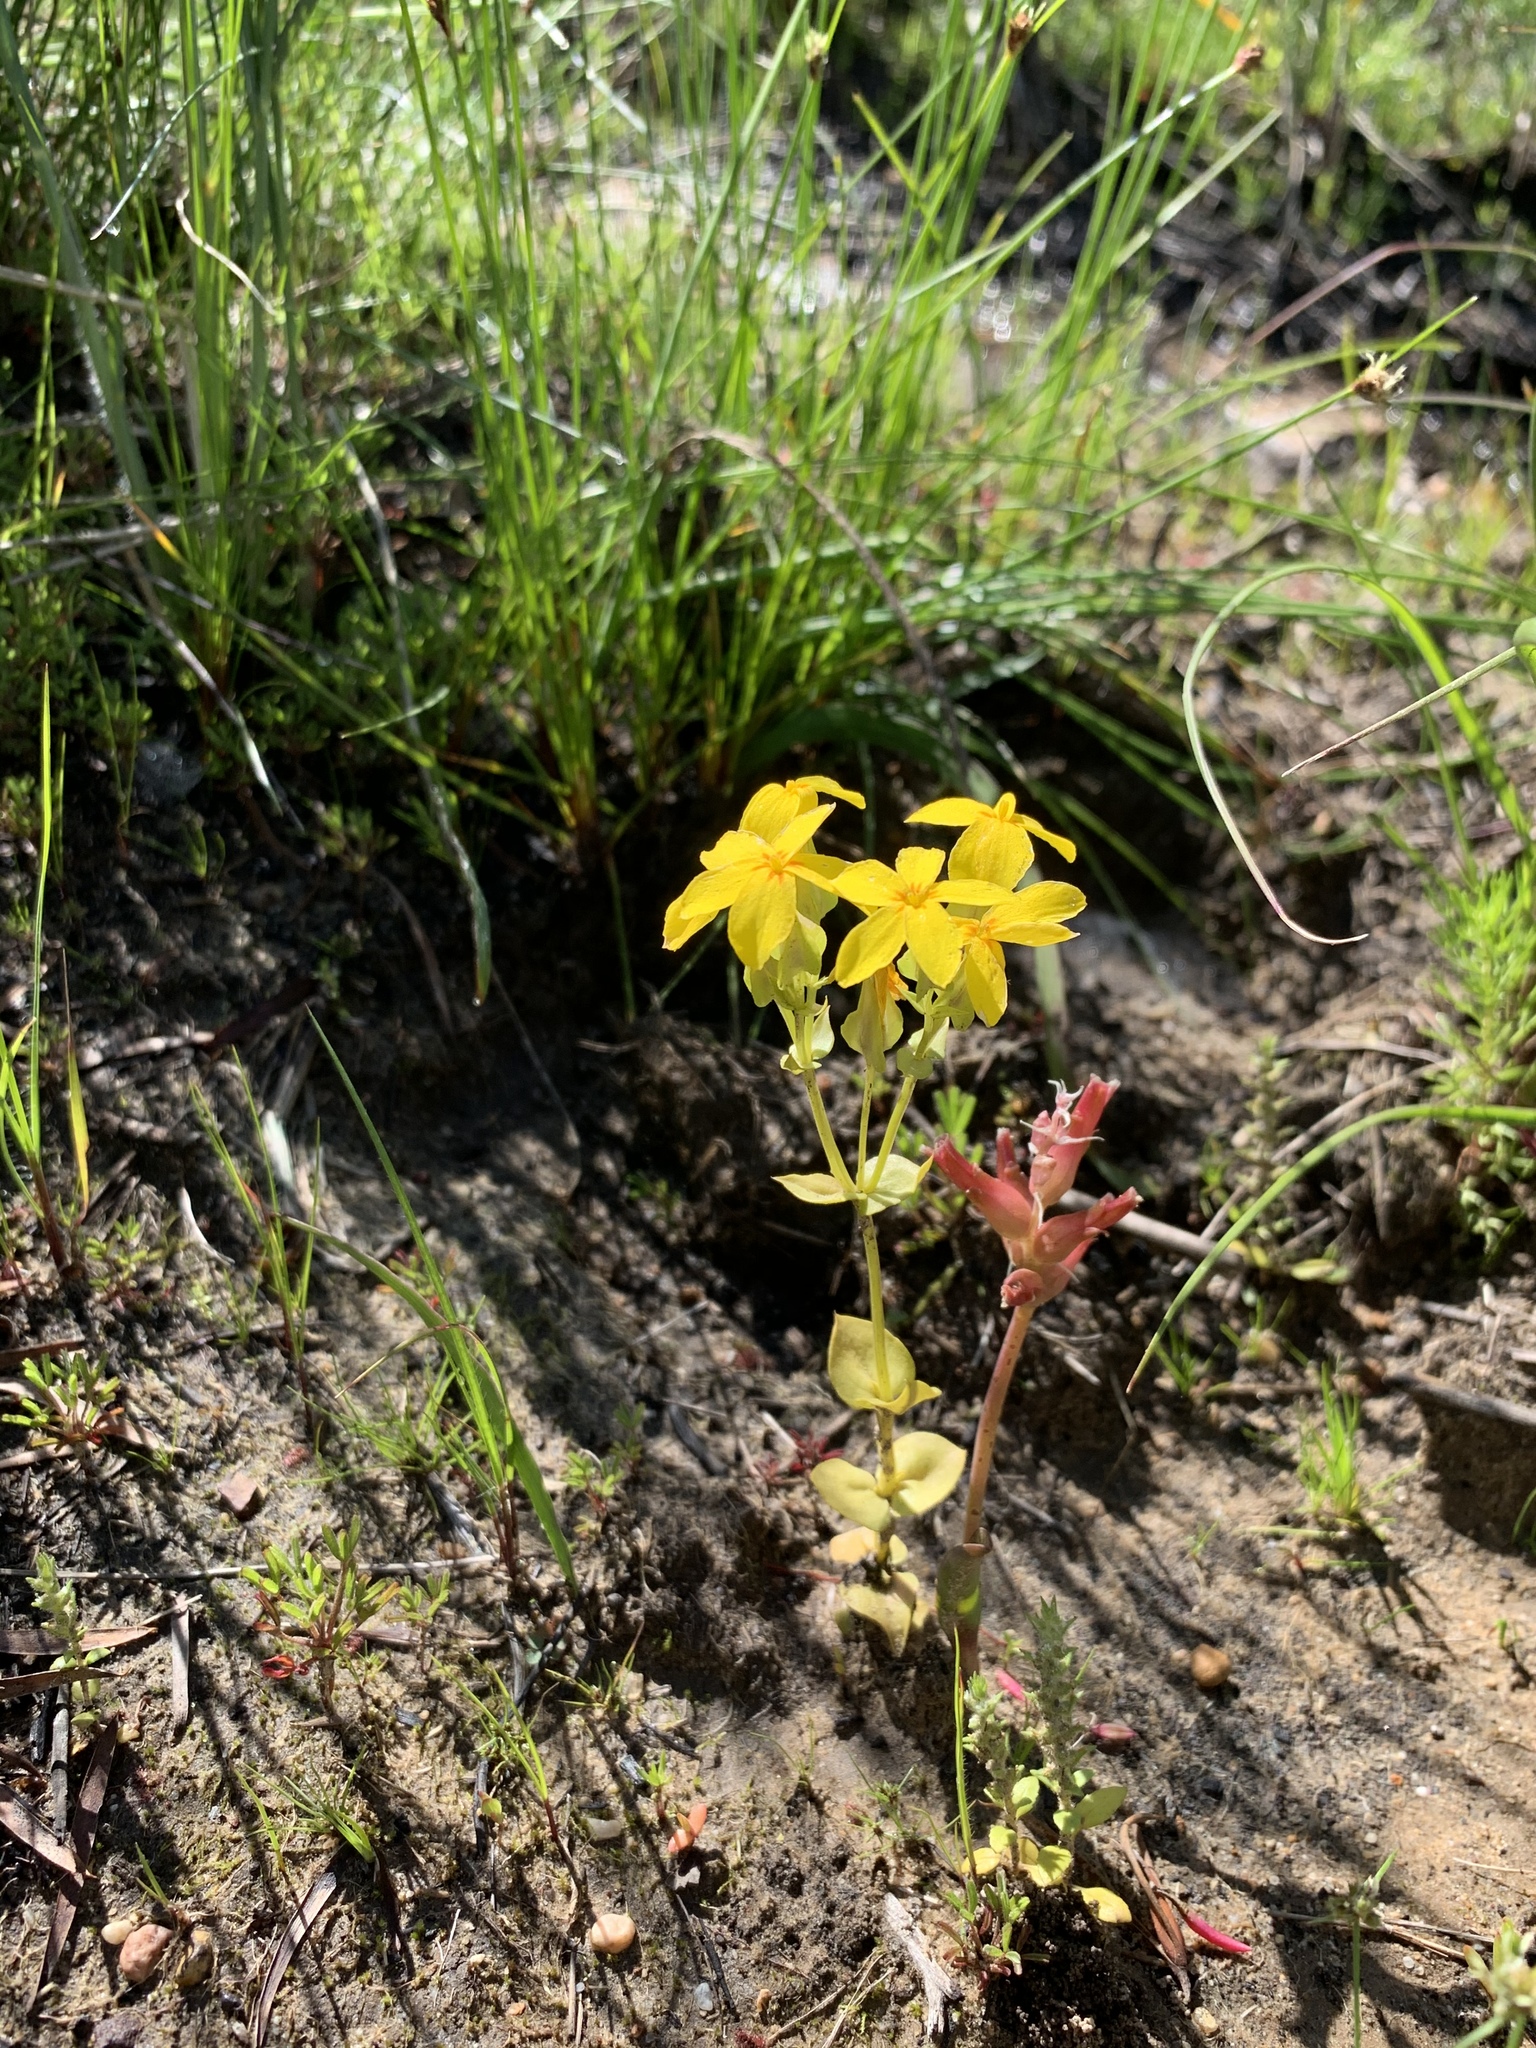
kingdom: Plantae
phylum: Tracheophyta
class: Magnoliopsida
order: Gentianales
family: Gentianaceae
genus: Sebaea
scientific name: Sebaea exacoides
